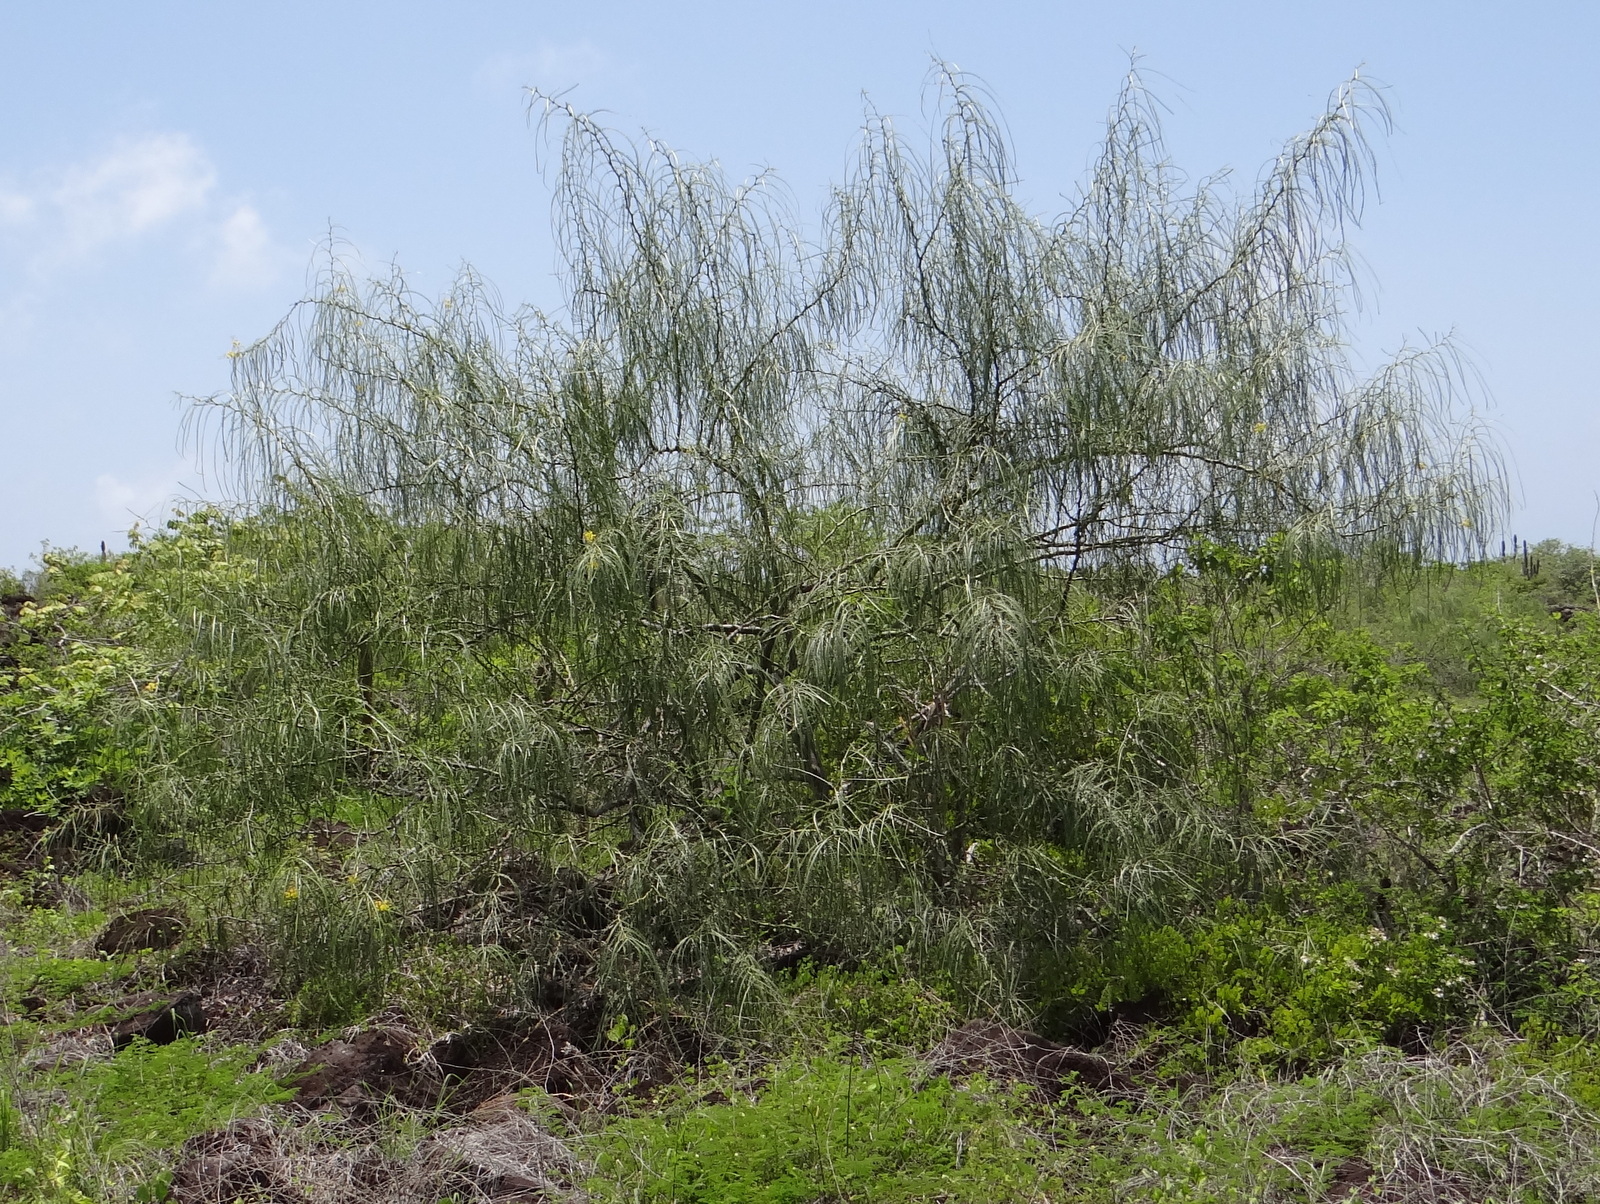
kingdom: Plantae
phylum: Tracheophyta
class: Magnoliopsida
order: Fabales
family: Fabaceae
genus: Parkinsonia
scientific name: Parkinsonia aculeata
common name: Jerusalem thorn
